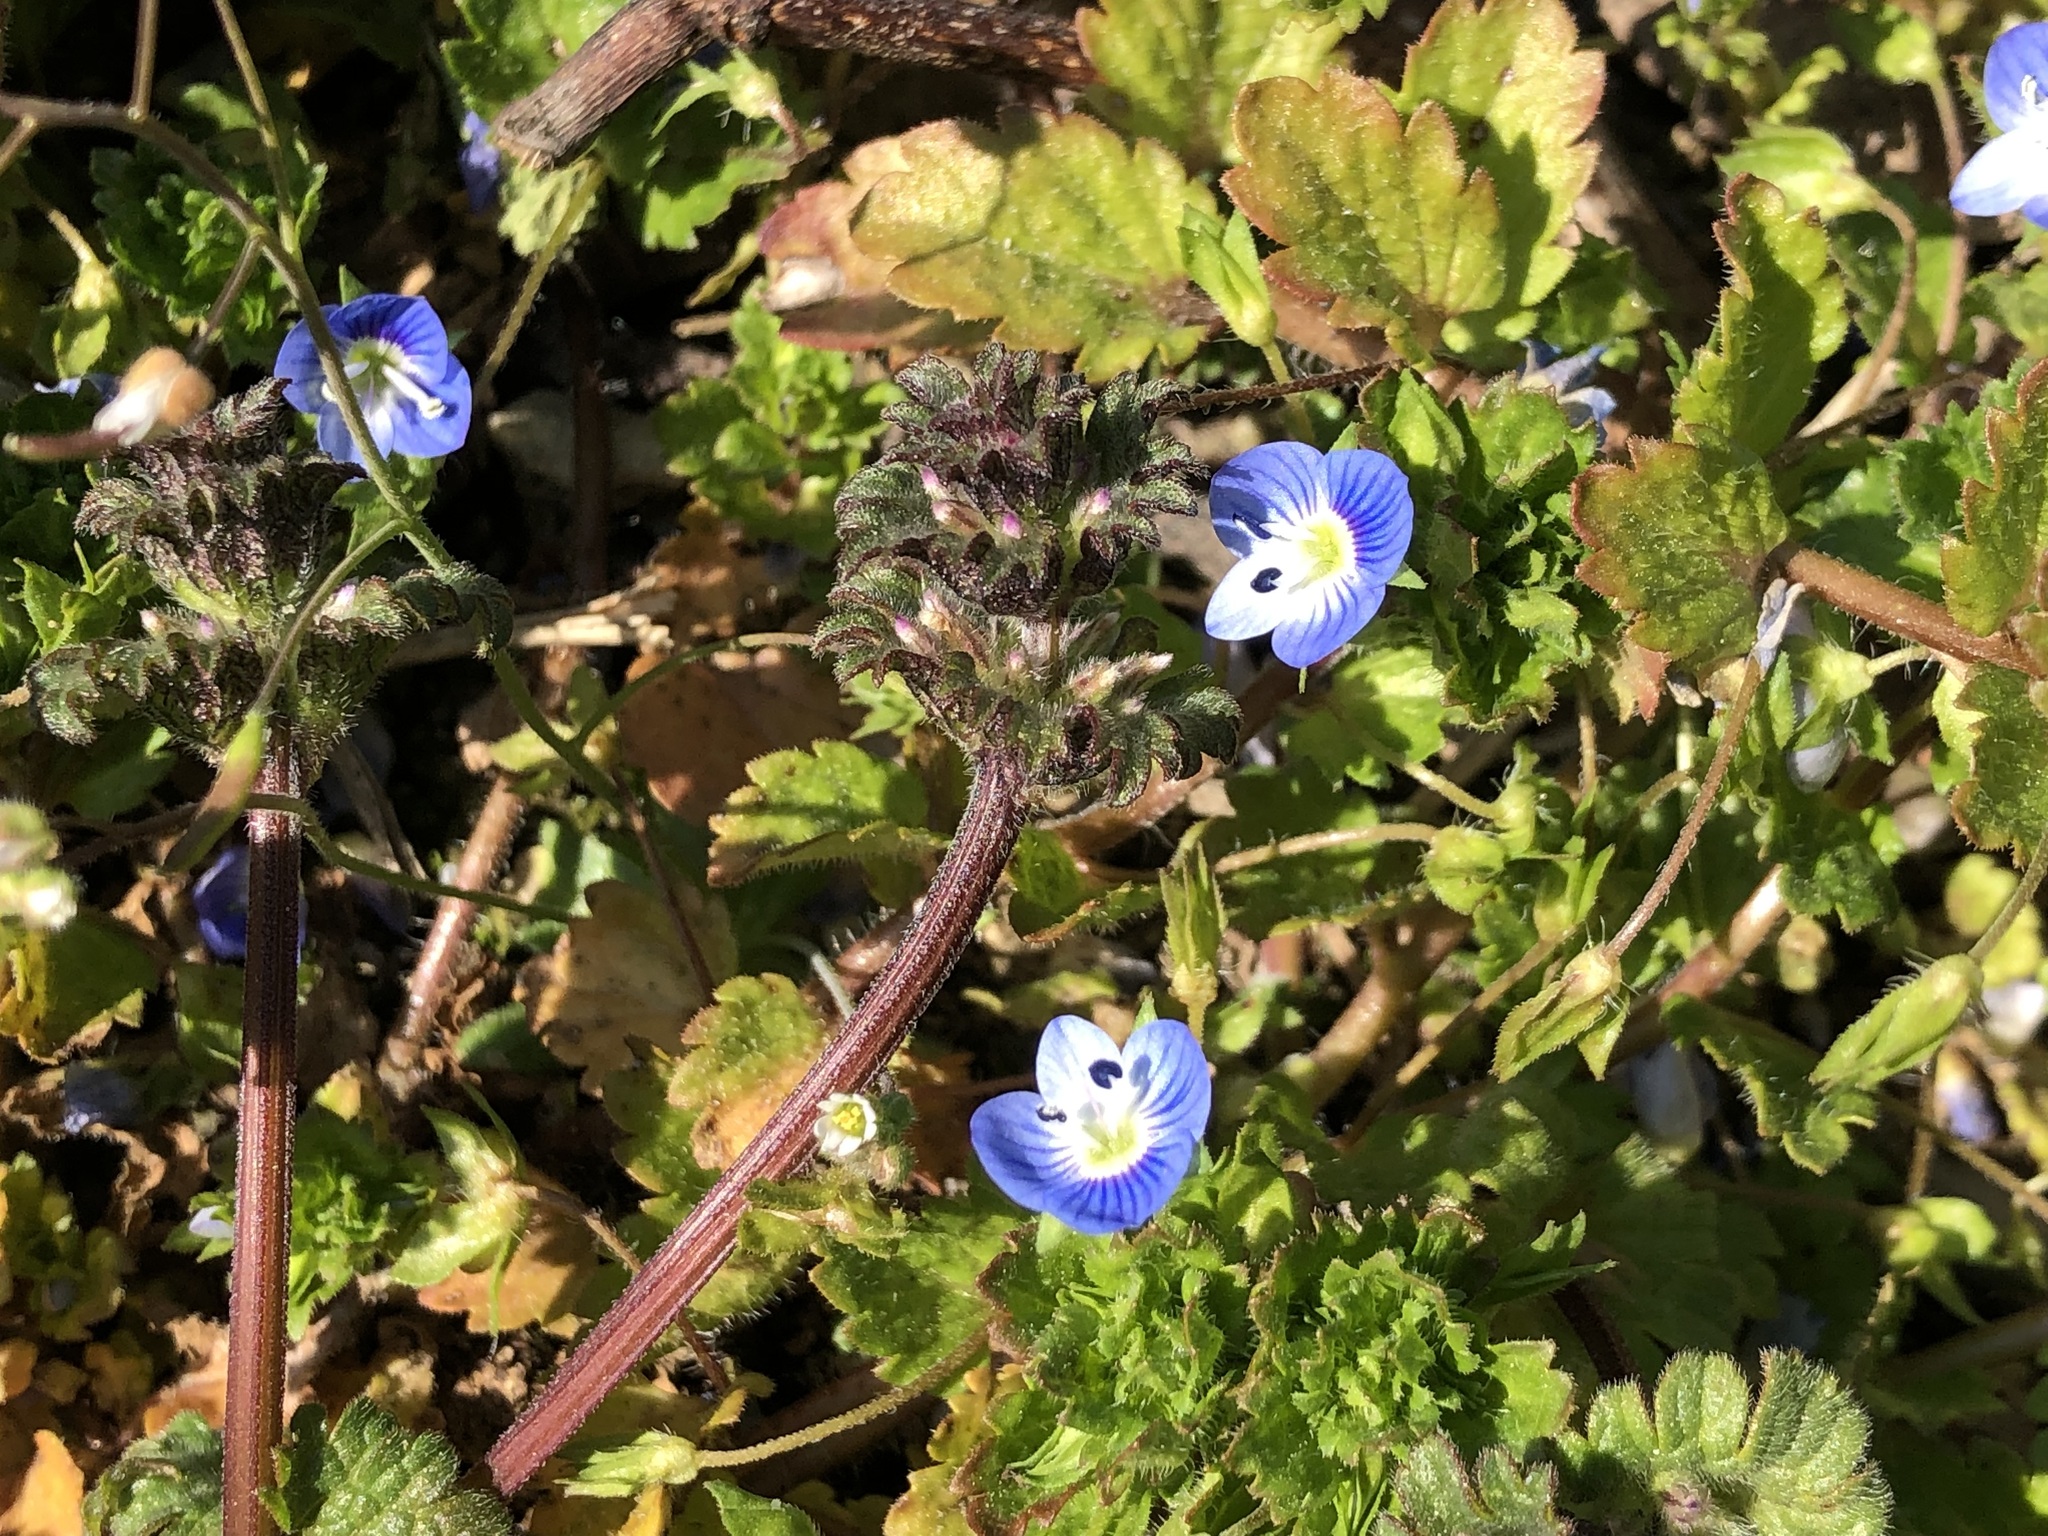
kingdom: Plantae
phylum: Tracheophyta
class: Magnoliopsida
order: Lamiales
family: Plantaginaceae
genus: Veronica
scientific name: Veronica persica
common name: Common field-speedwell
